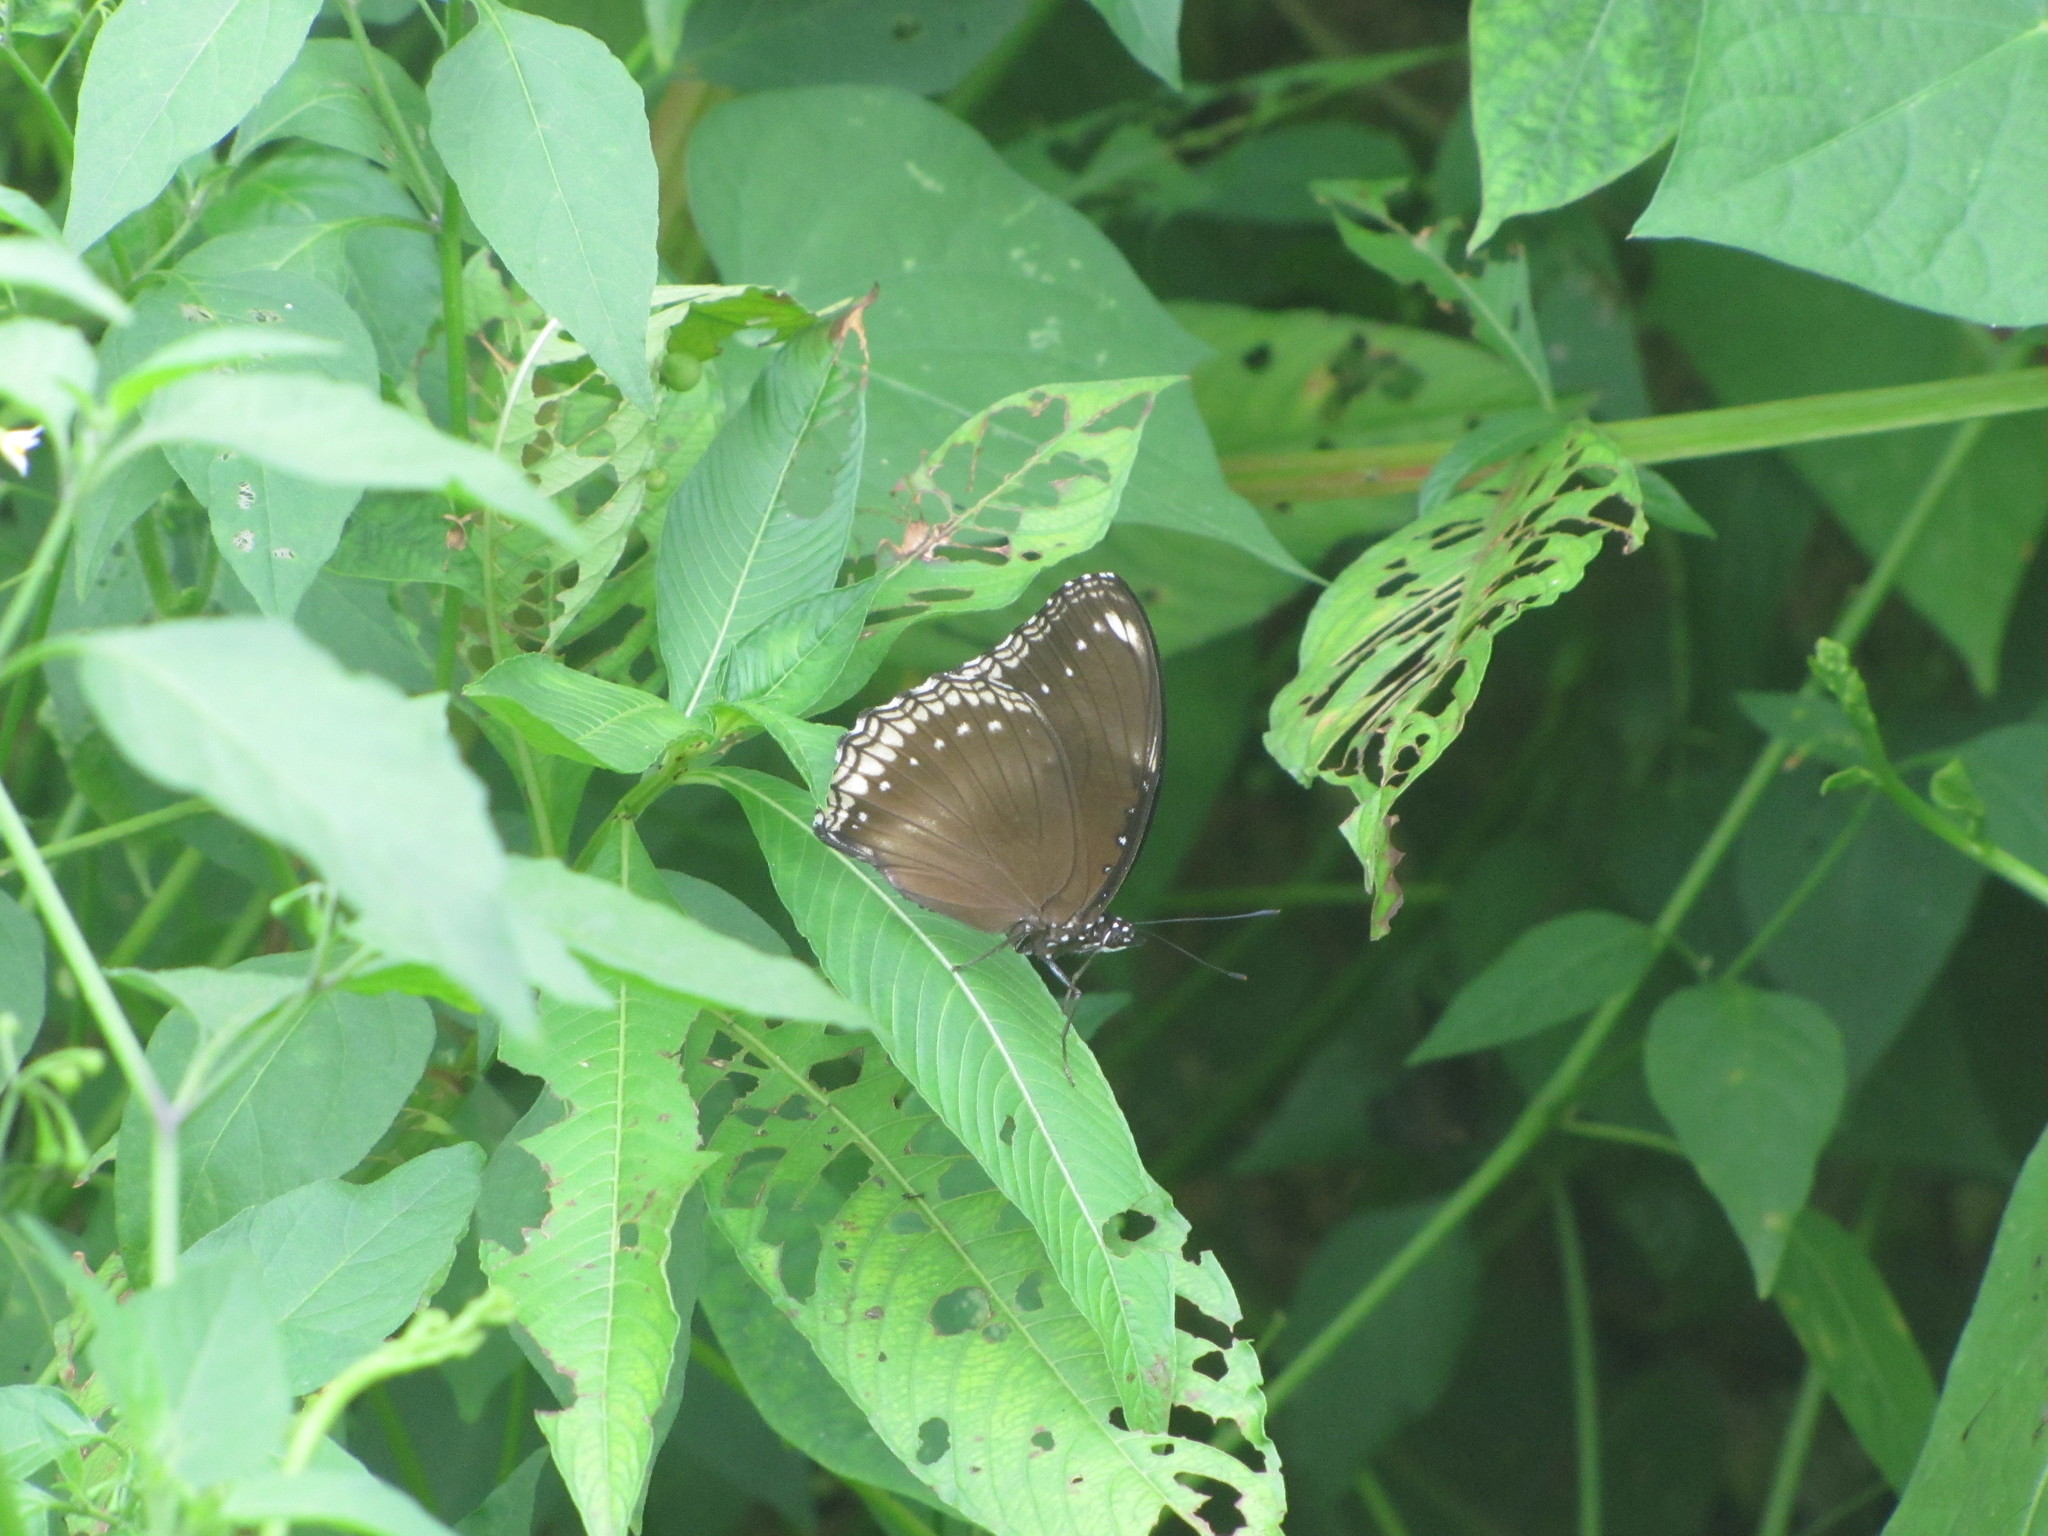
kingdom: Animalia
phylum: Arthropoda
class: Insecta
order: Lepidoptera
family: Nymphalidae
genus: Hypolimnas
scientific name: Hypolimnas bolina
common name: Great eggfly
